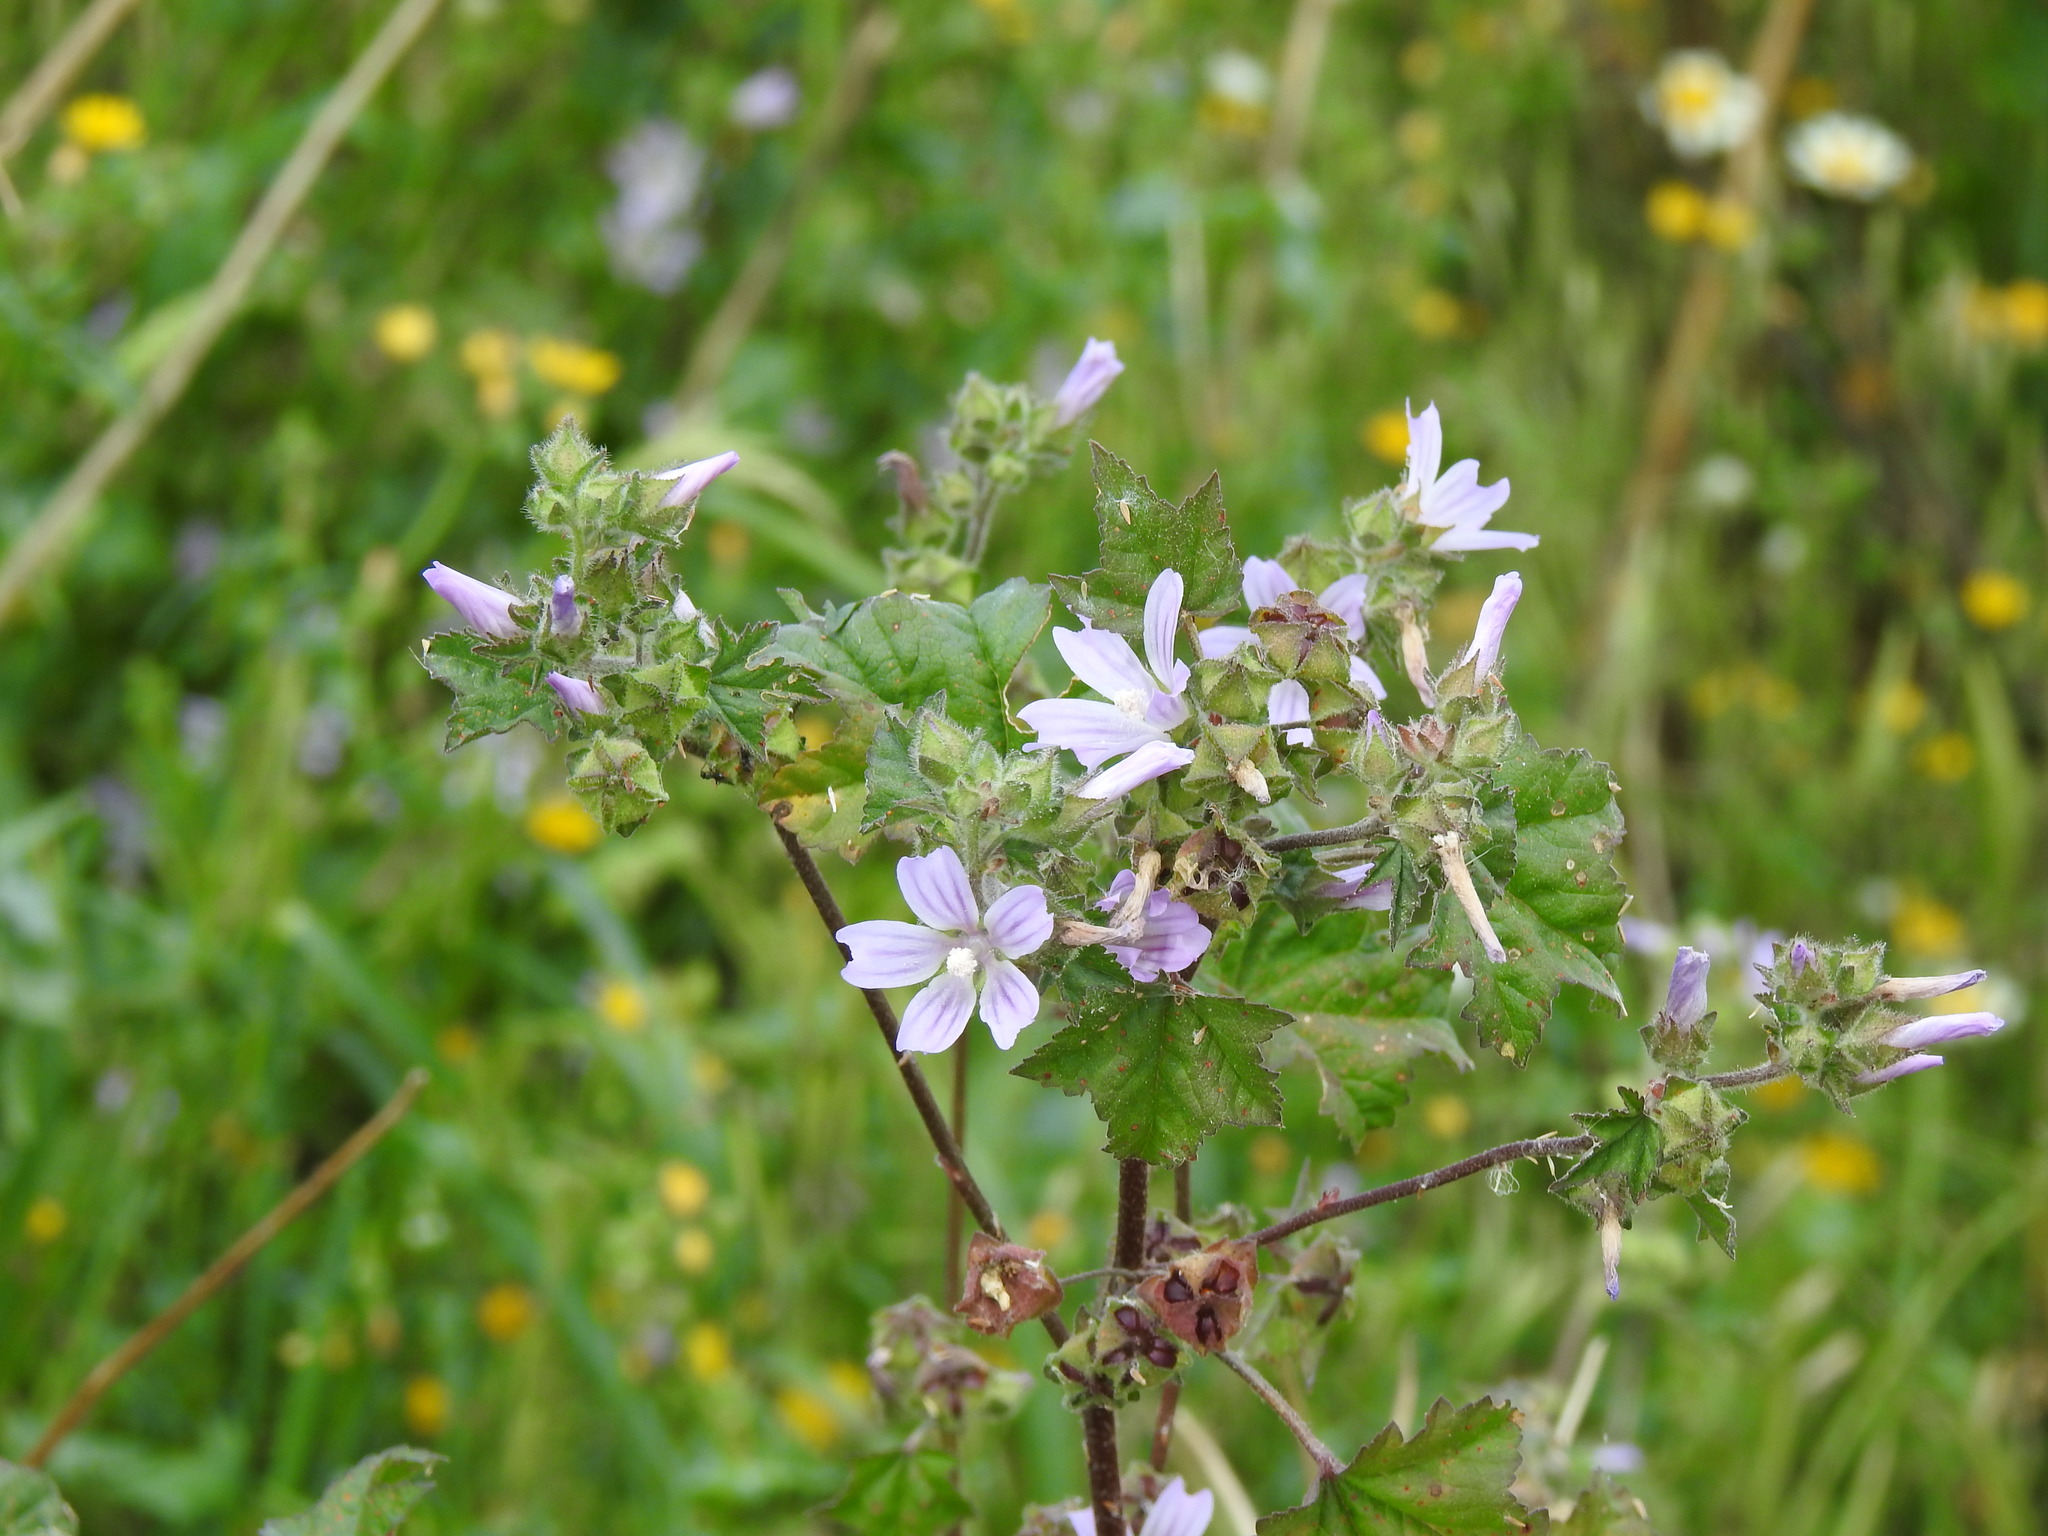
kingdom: Plantae
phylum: Tracheophyta
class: Magnoliopsida
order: Malvales
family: Malvaceae
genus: Malva
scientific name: Malva multiflora
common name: Cheeseweed
